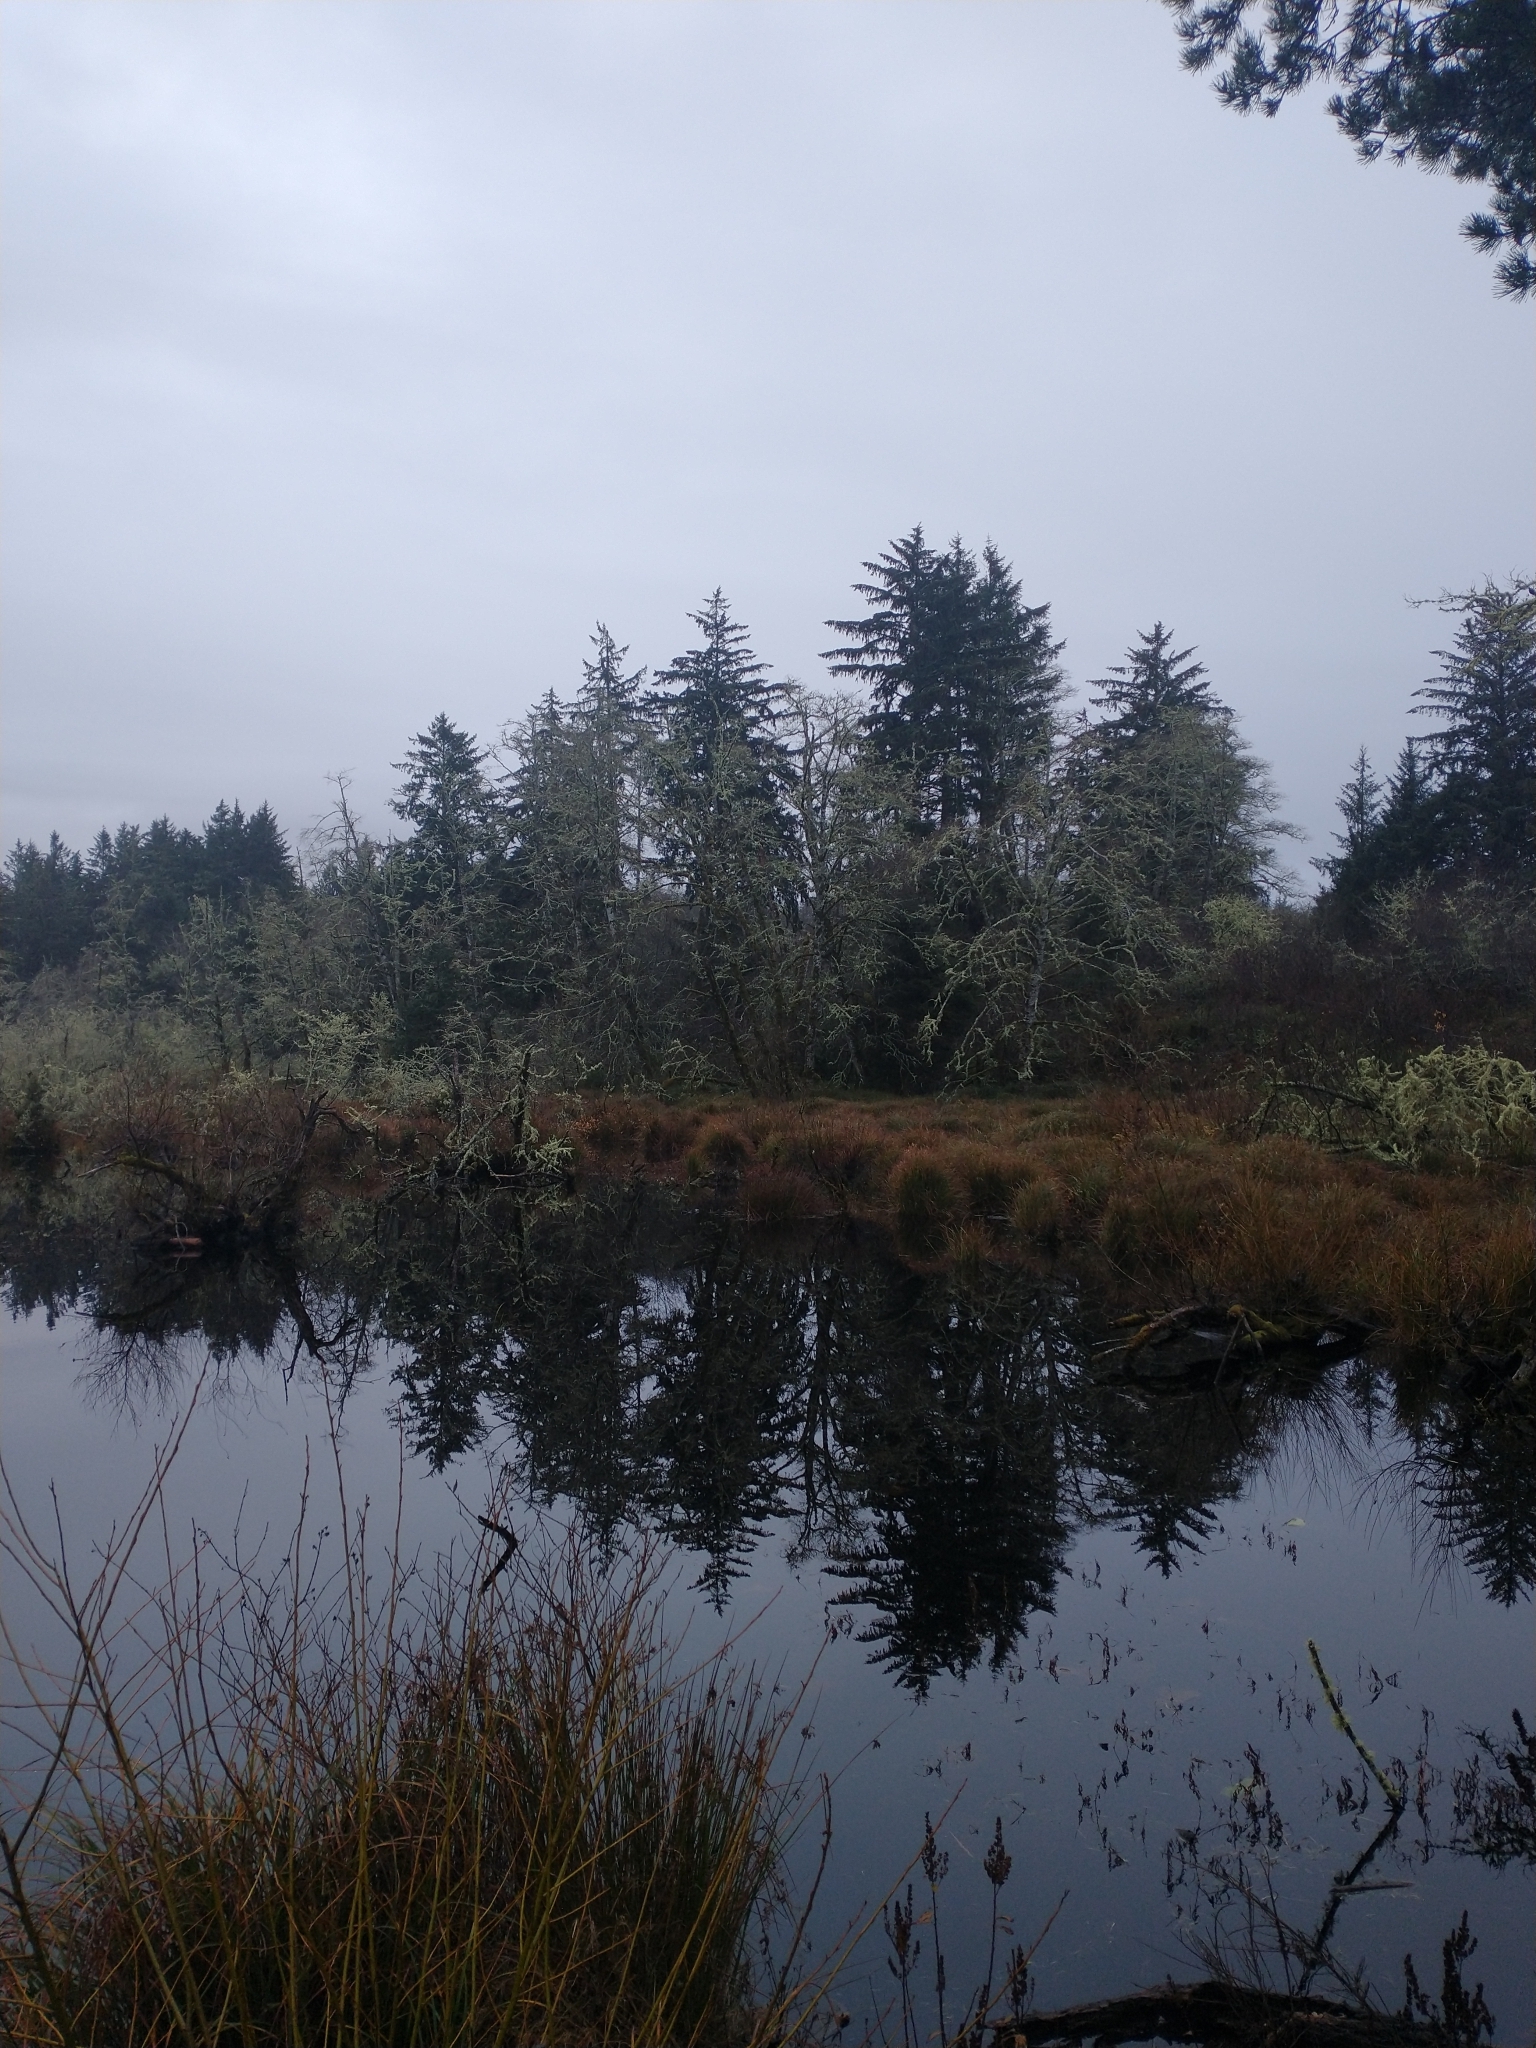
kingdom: Plantae
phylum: Tracheophyta
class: Pinopsida
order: Pinales
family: Pinaceae
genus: Picea
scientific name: Picea sitchensis
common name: Sitka spruce
